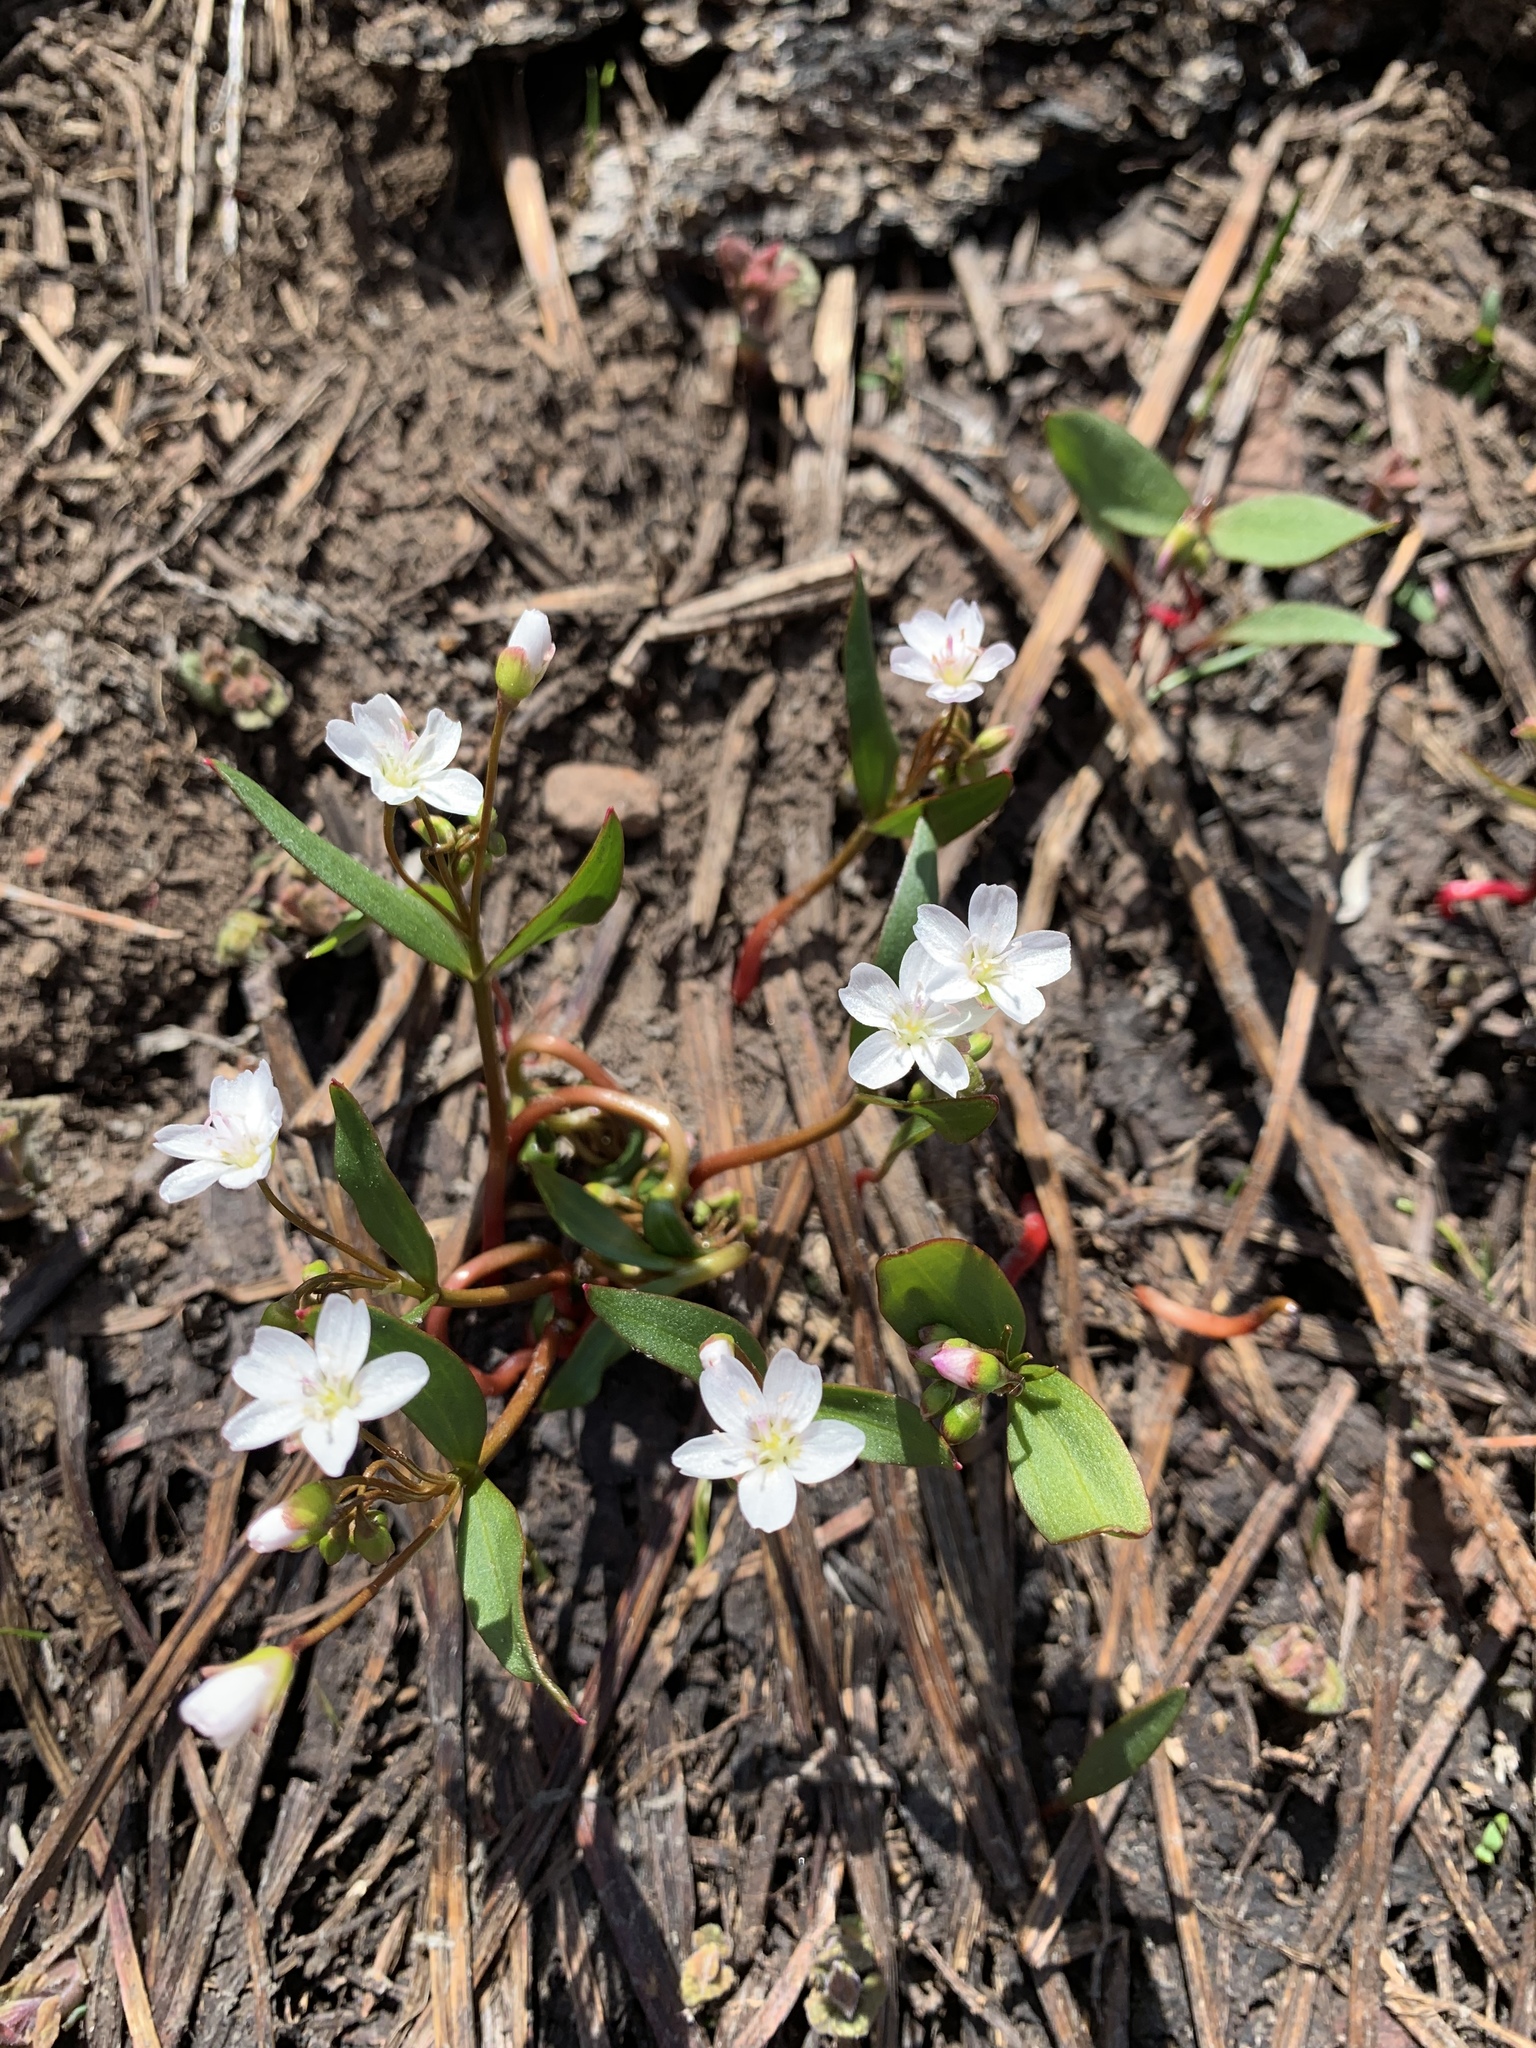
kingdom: Plantae
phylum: Tracheophyta
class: Magnoliopsida
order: Caryophyllales
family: Montiaceae
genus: Claytonia
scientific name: Claytonia lanceolata
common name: Western spring-beauty
